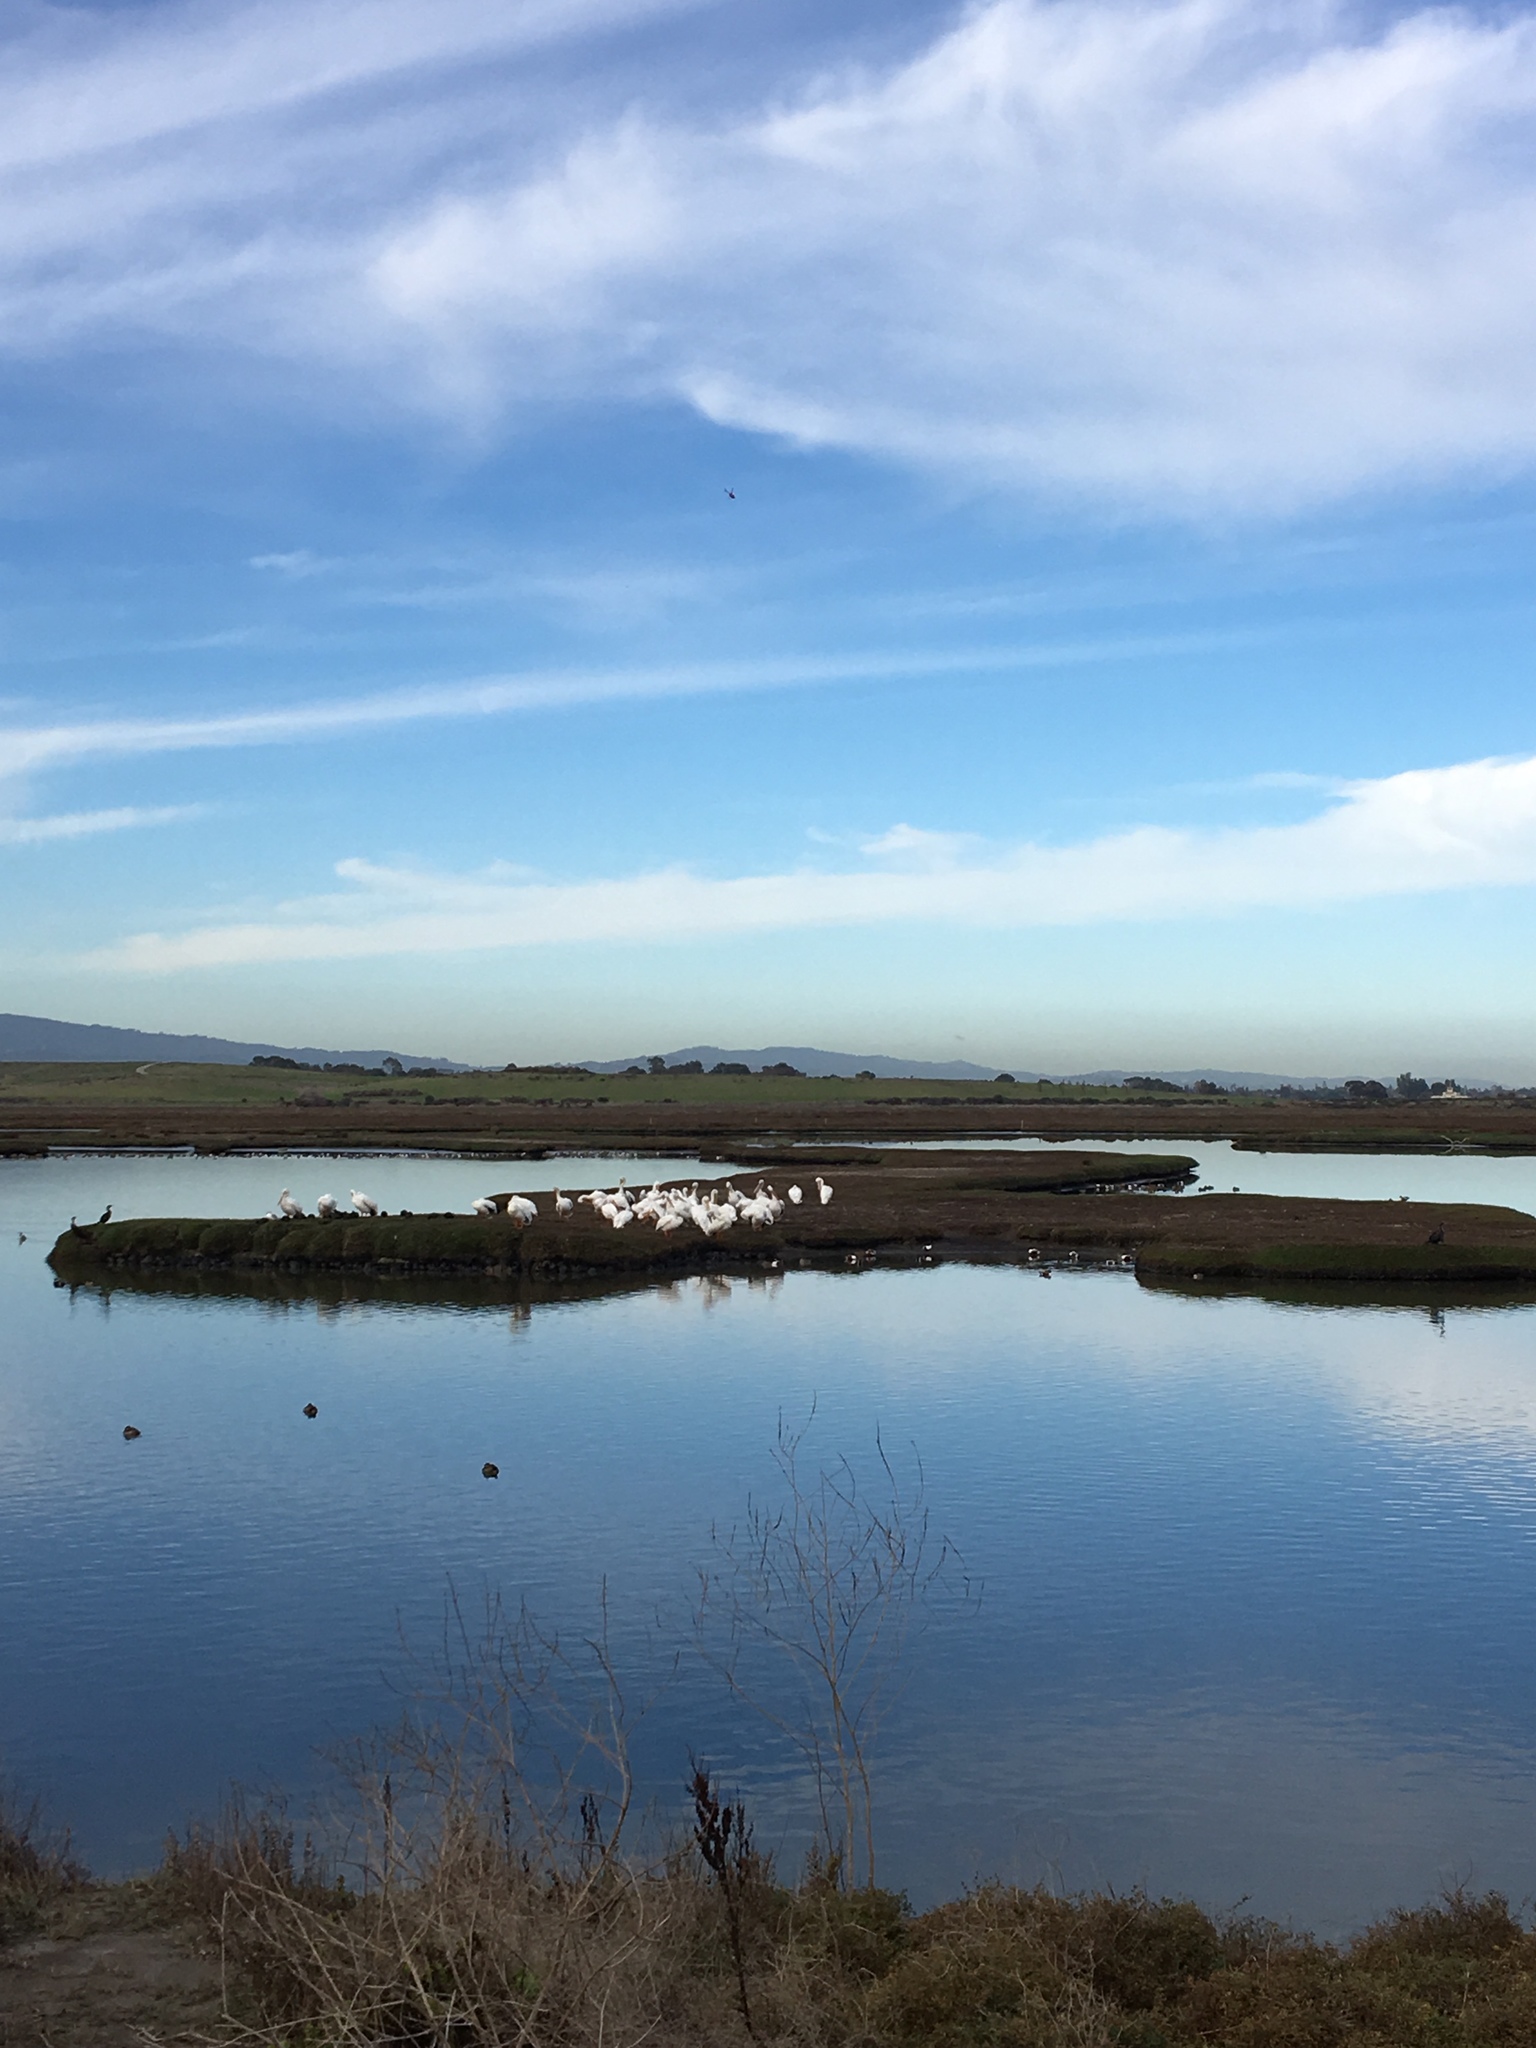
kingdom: Animalia
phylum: Chordata
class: Aves
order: Pelecaniformes
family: Pelecanidae
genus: Pelecanus
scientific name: Pelecanus erythrorhynchos
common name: American white pelican
